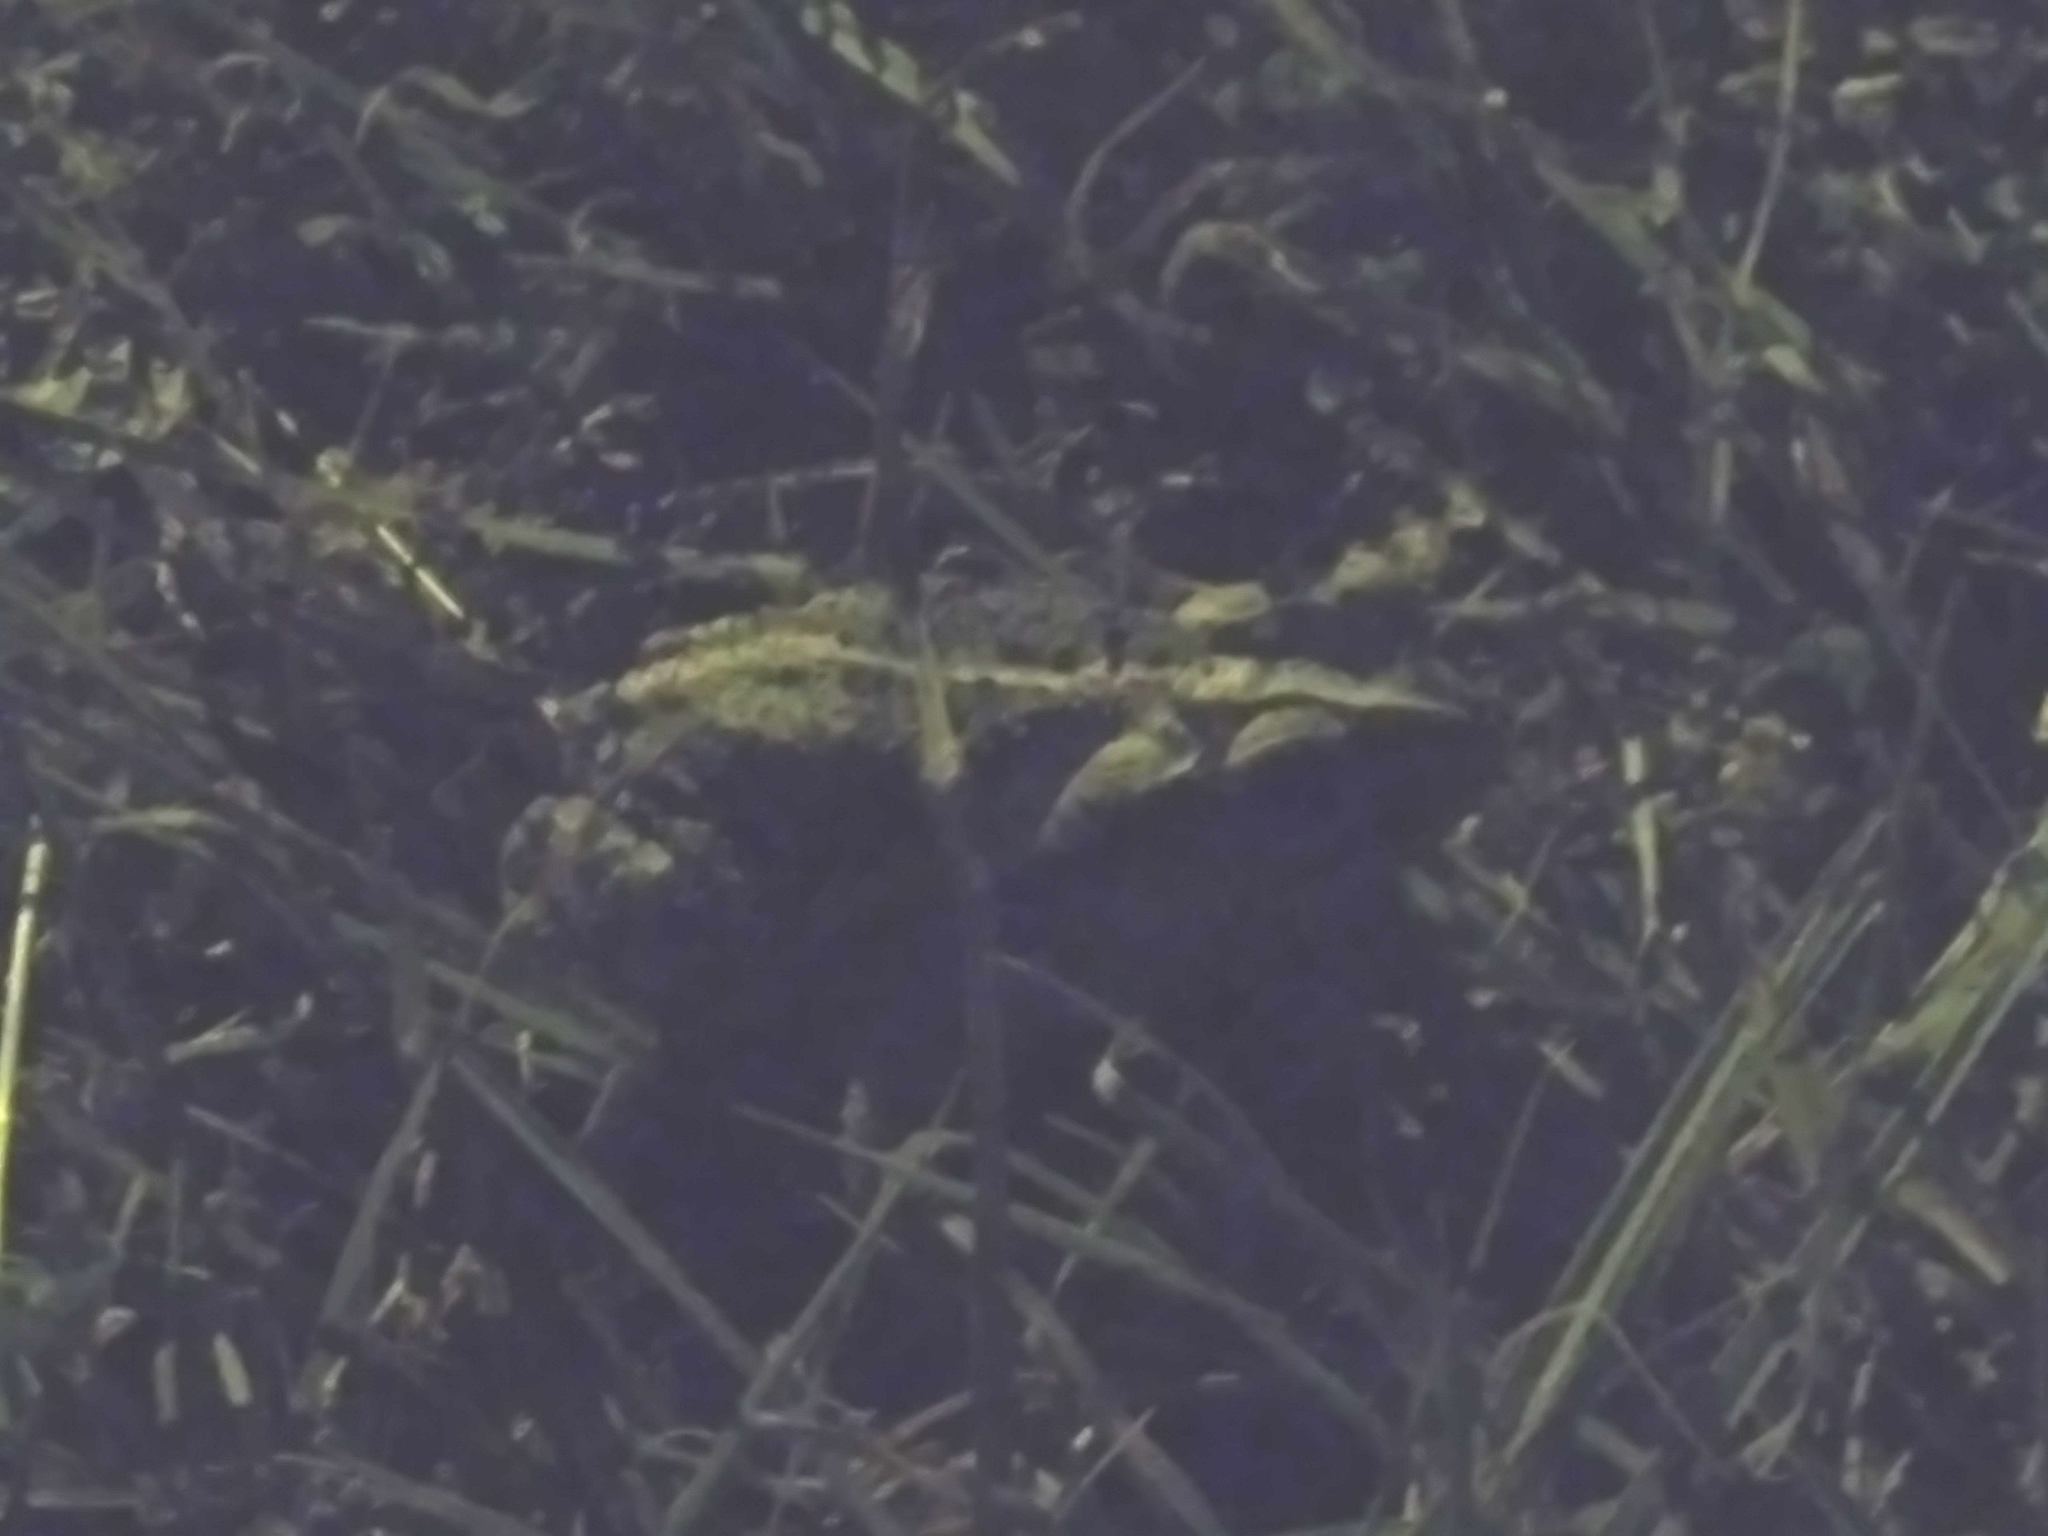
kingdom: Animalia
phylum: Chordata
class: Amphibia
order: Anura
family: Bufonidae
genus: Incilius
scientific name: Incilius nebulifer
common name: Gulf coast toad
